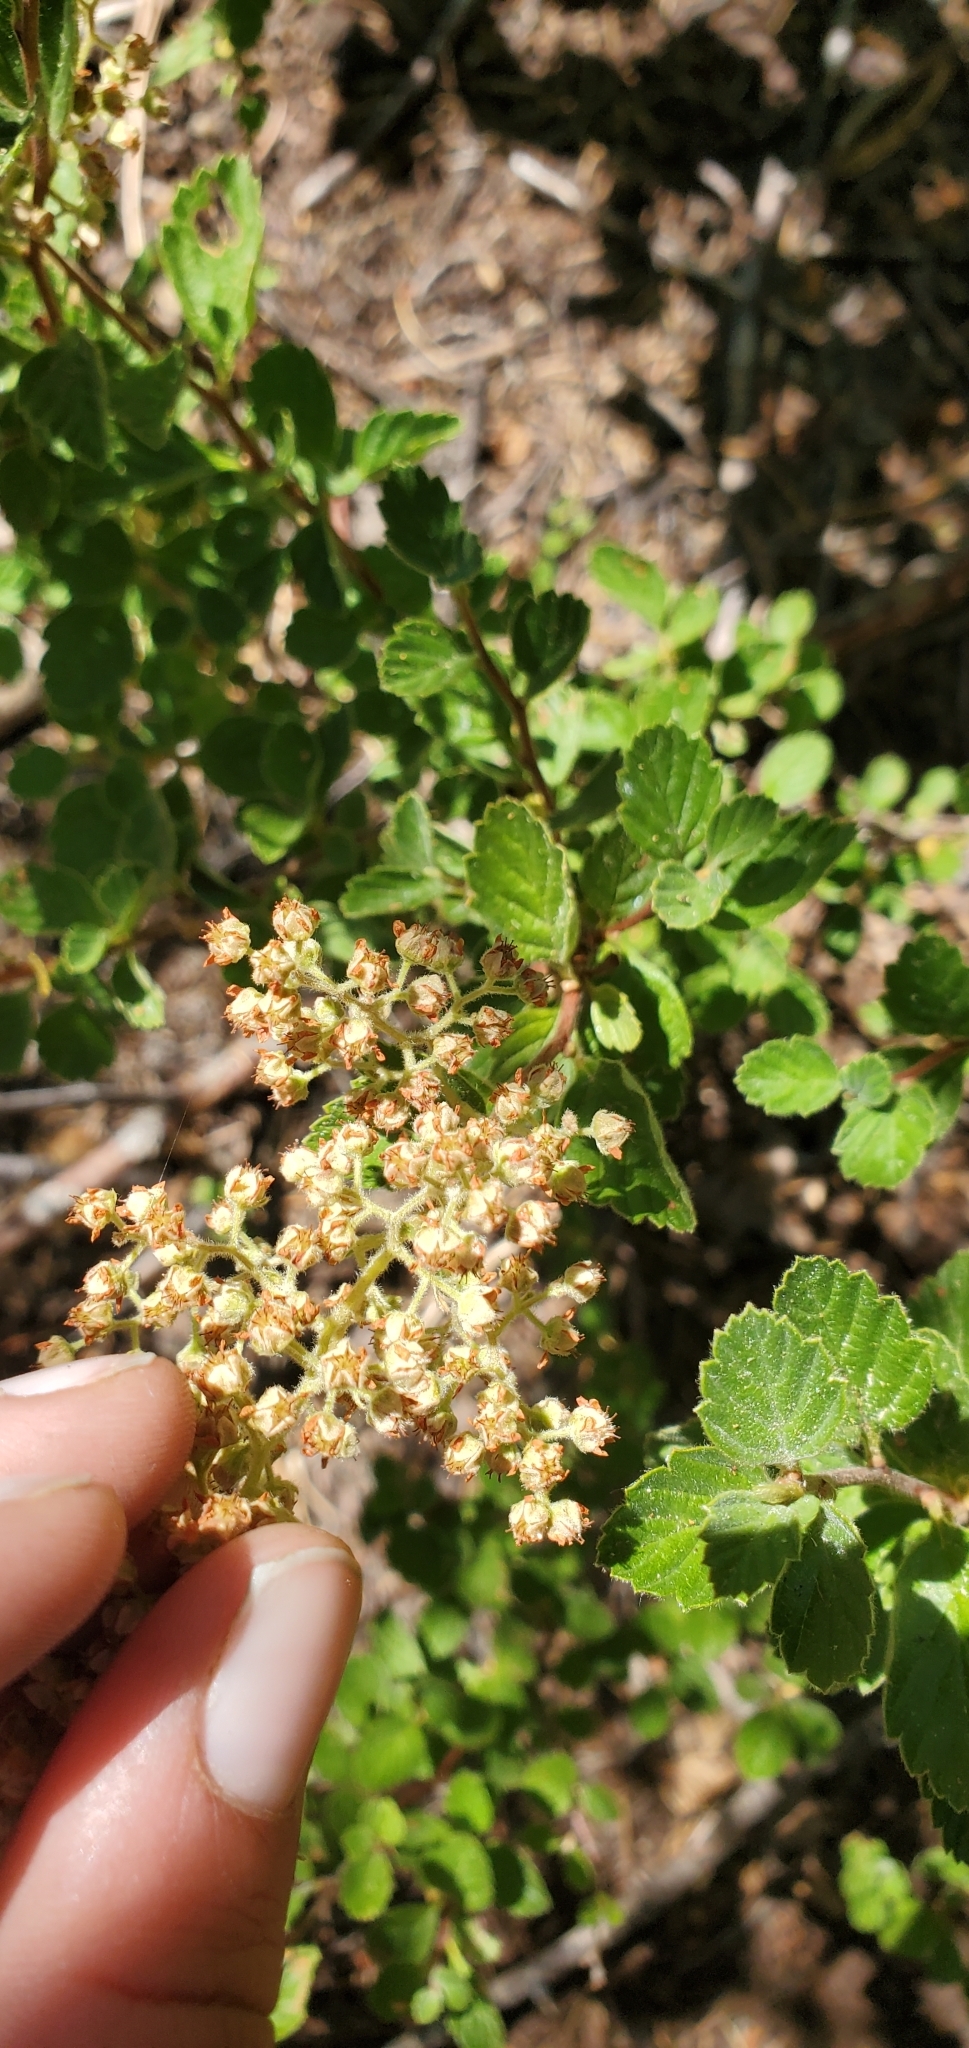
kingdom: Plantae
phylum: Tracheophyta
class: Magnoliopsida
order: Rosales
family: Rosaceae
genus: Holodiscus
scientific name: Holodiscus discolor
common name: Oceanspray
